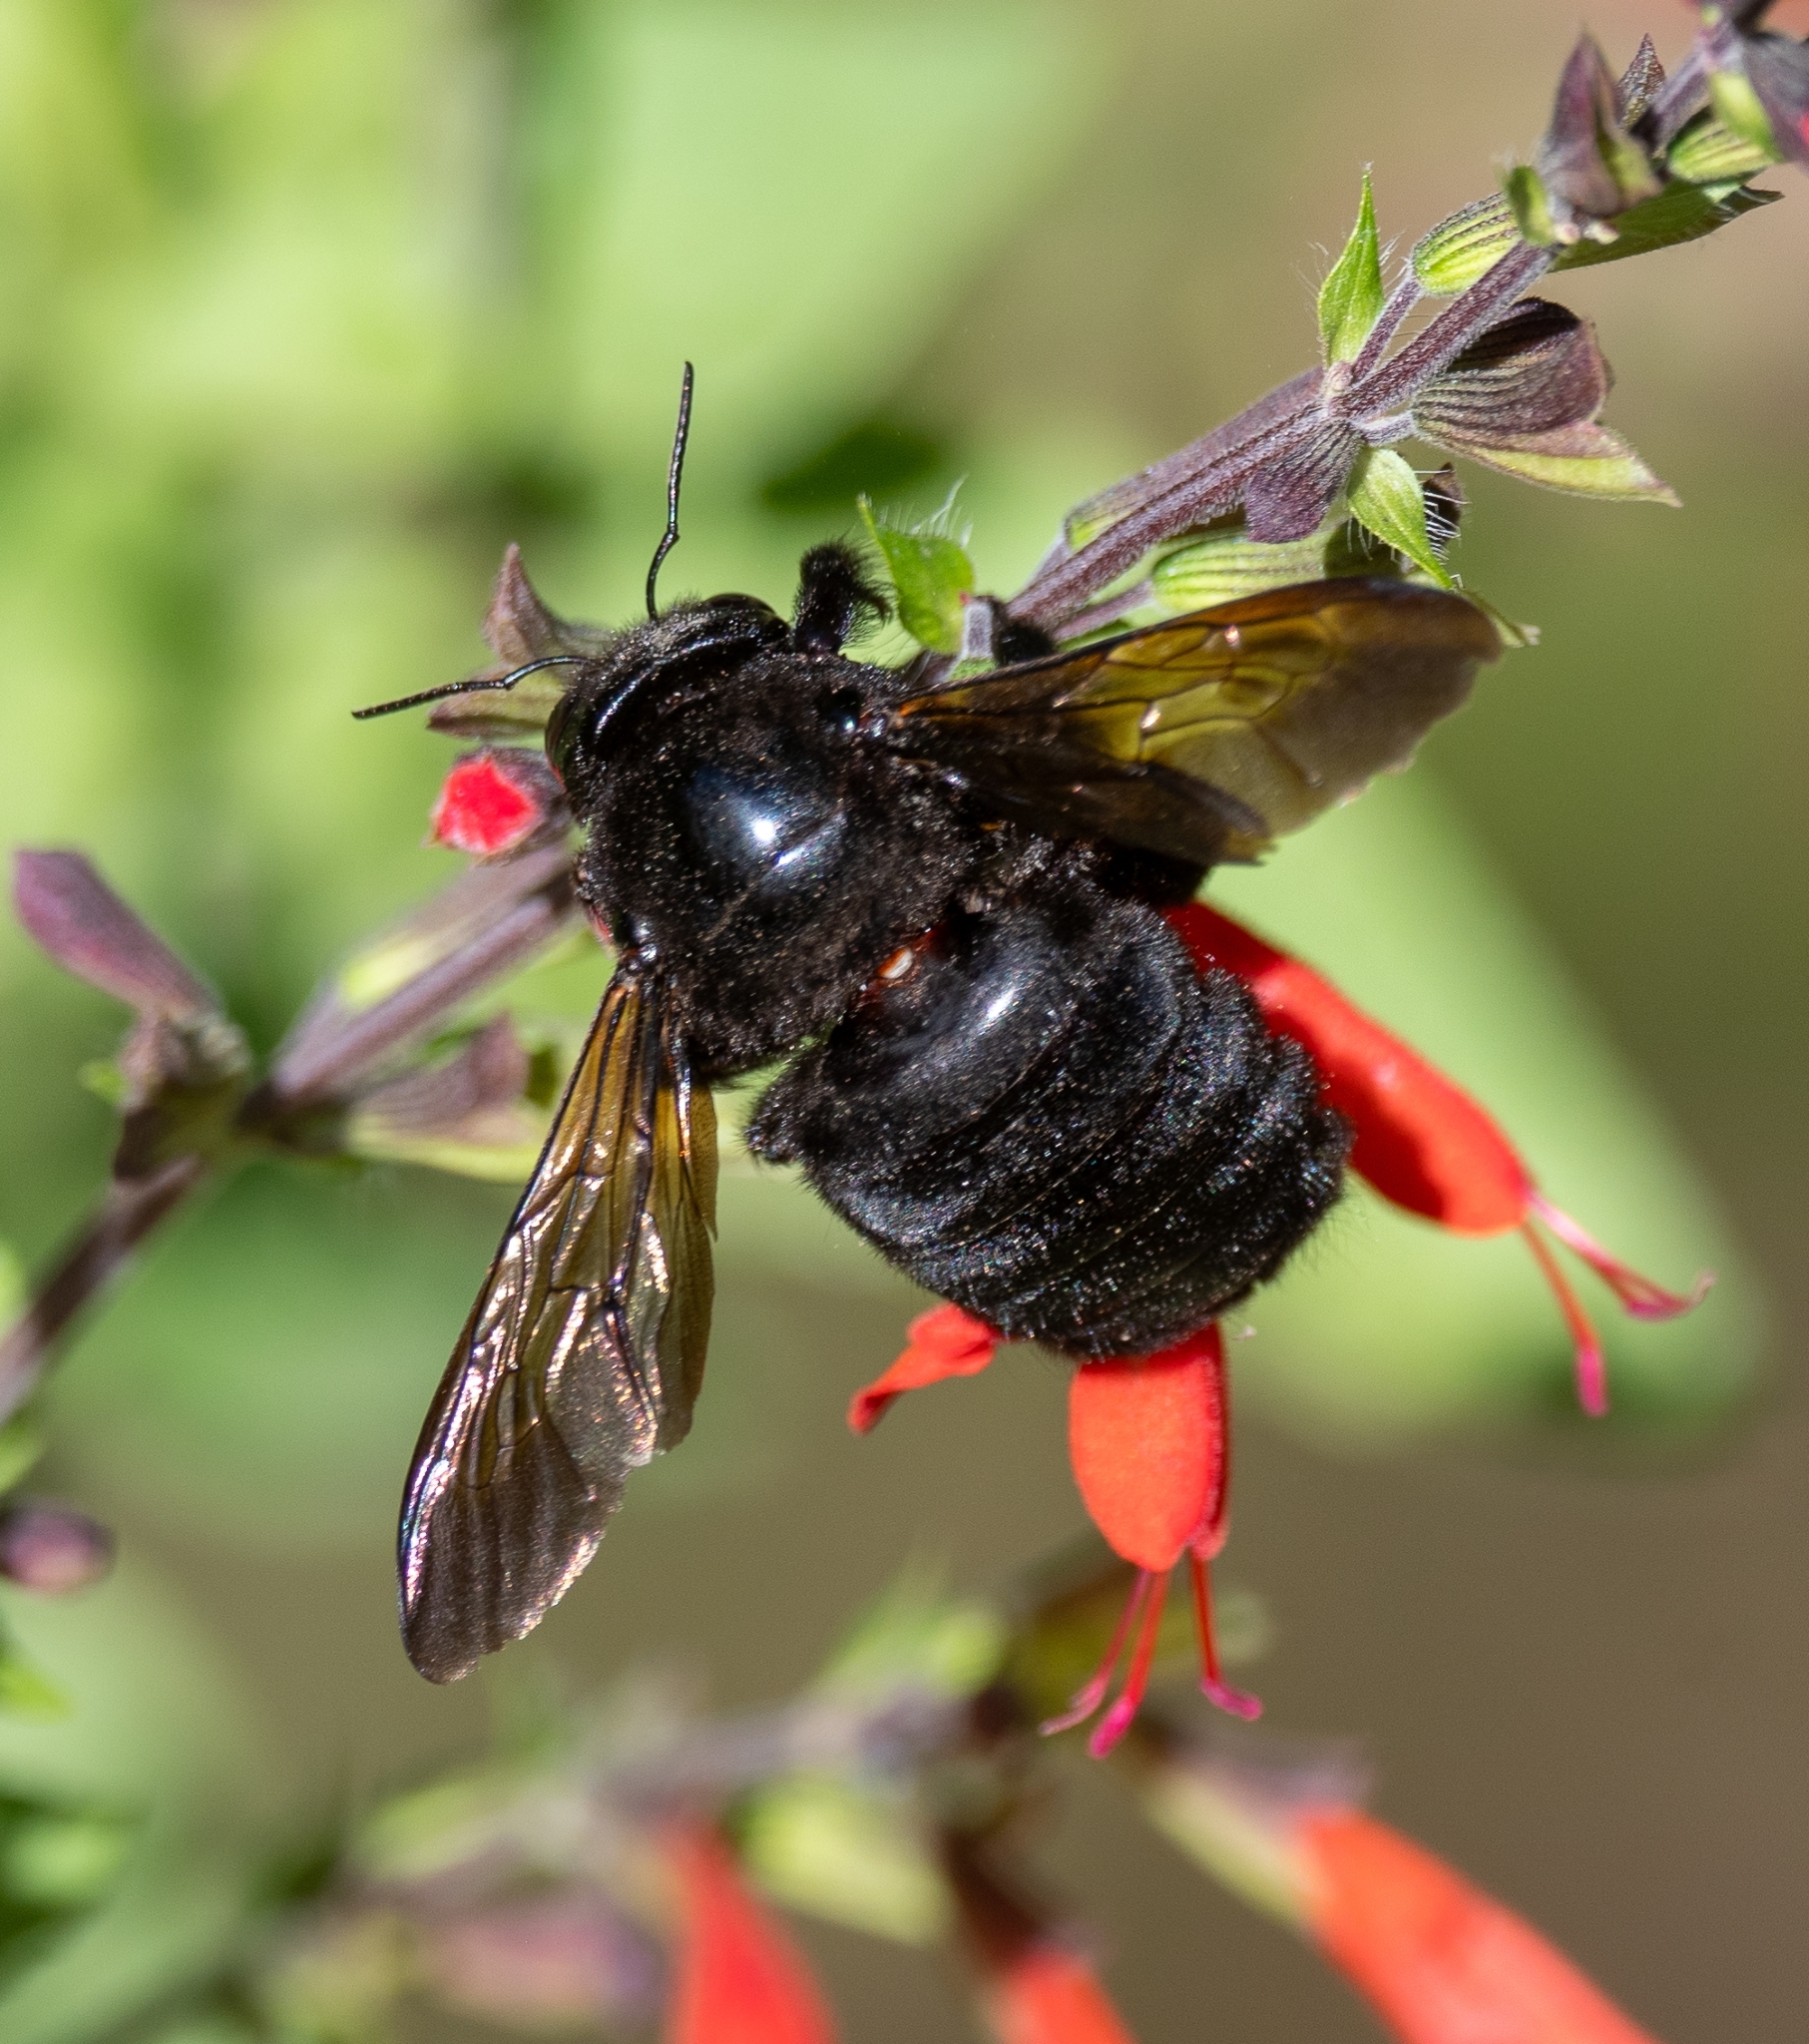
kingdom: Animalia
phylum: Arthropoda
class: Insecta
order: Hymenoptera
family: Apidae
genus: Xylocopa
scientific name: Xylocopa sonorina
